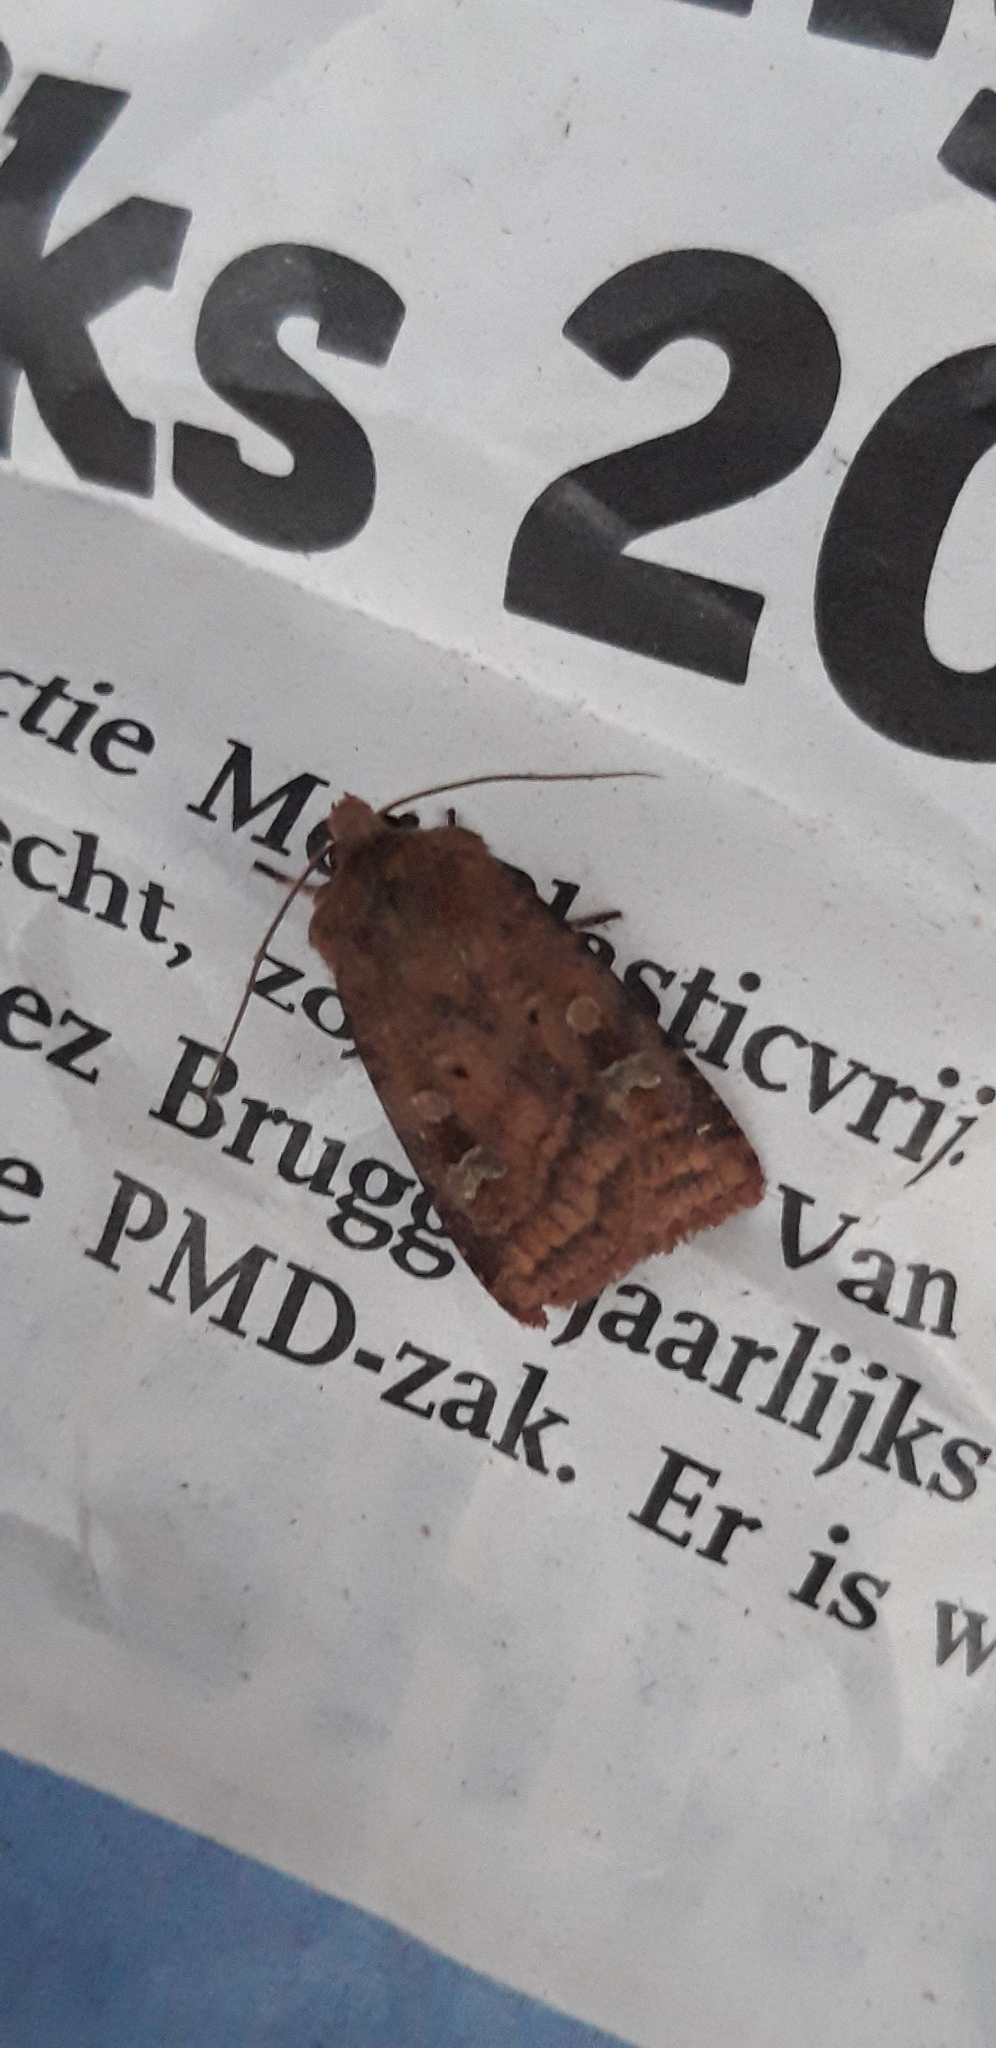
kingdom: Animalia
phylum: Arthropoda
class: Insecta
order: Lepidoptera
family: Noctuidae
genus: Diarsia
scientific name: Diarsia rubi
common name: Small square-spot
